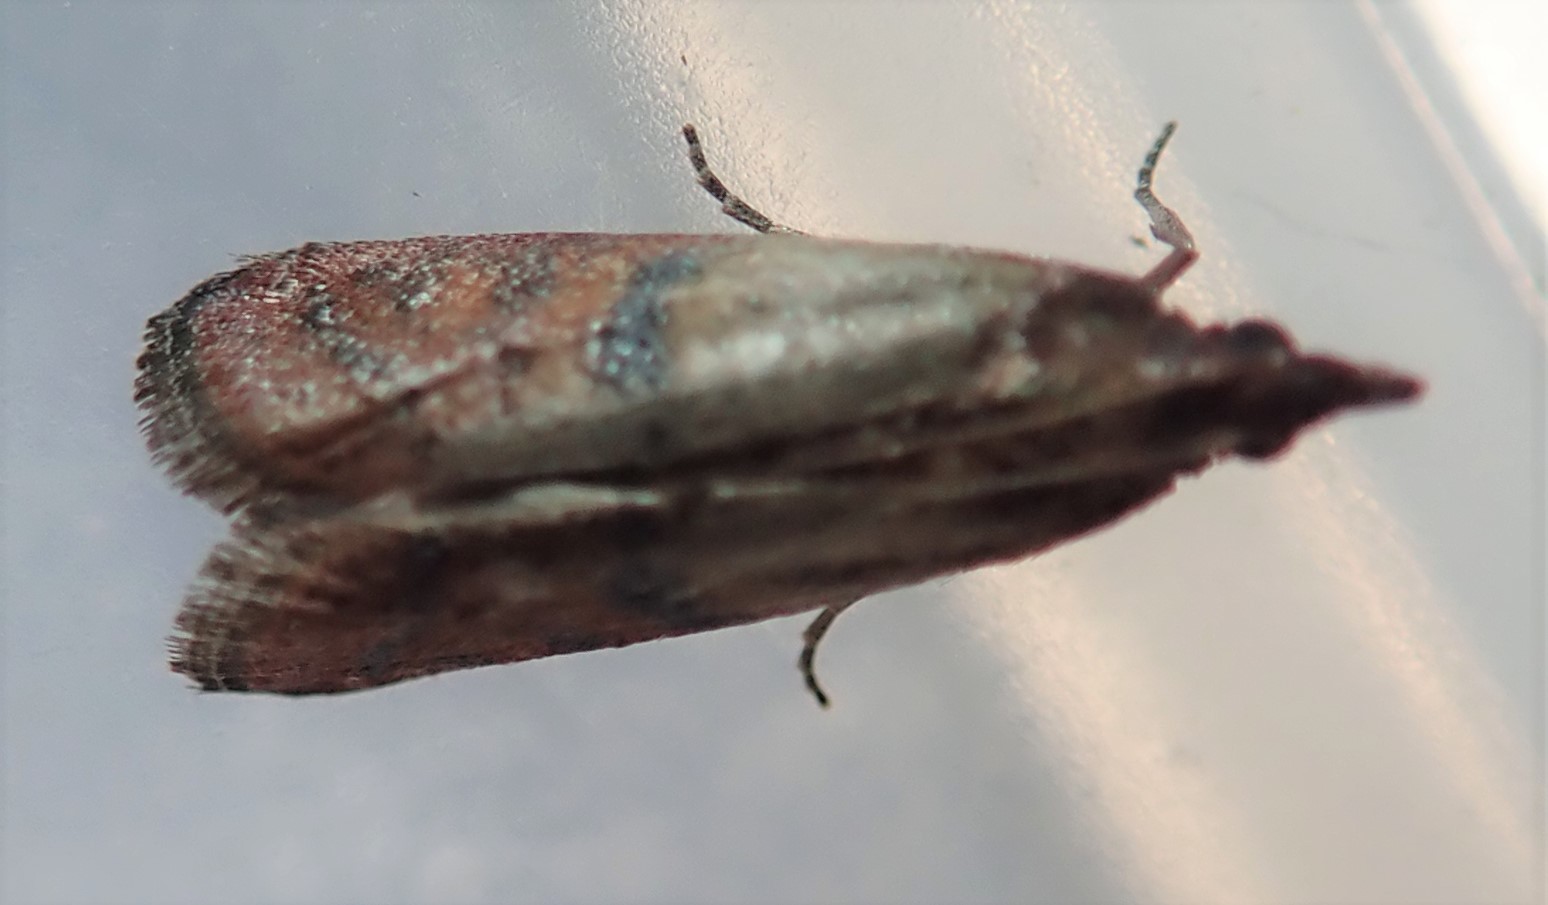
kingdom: Animalia
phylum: Arthropoda
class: Insecta
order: Lepidoptera
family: Pyralidae
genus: Plodia
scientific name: Plodia interpunctella
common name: Indian meal moth
